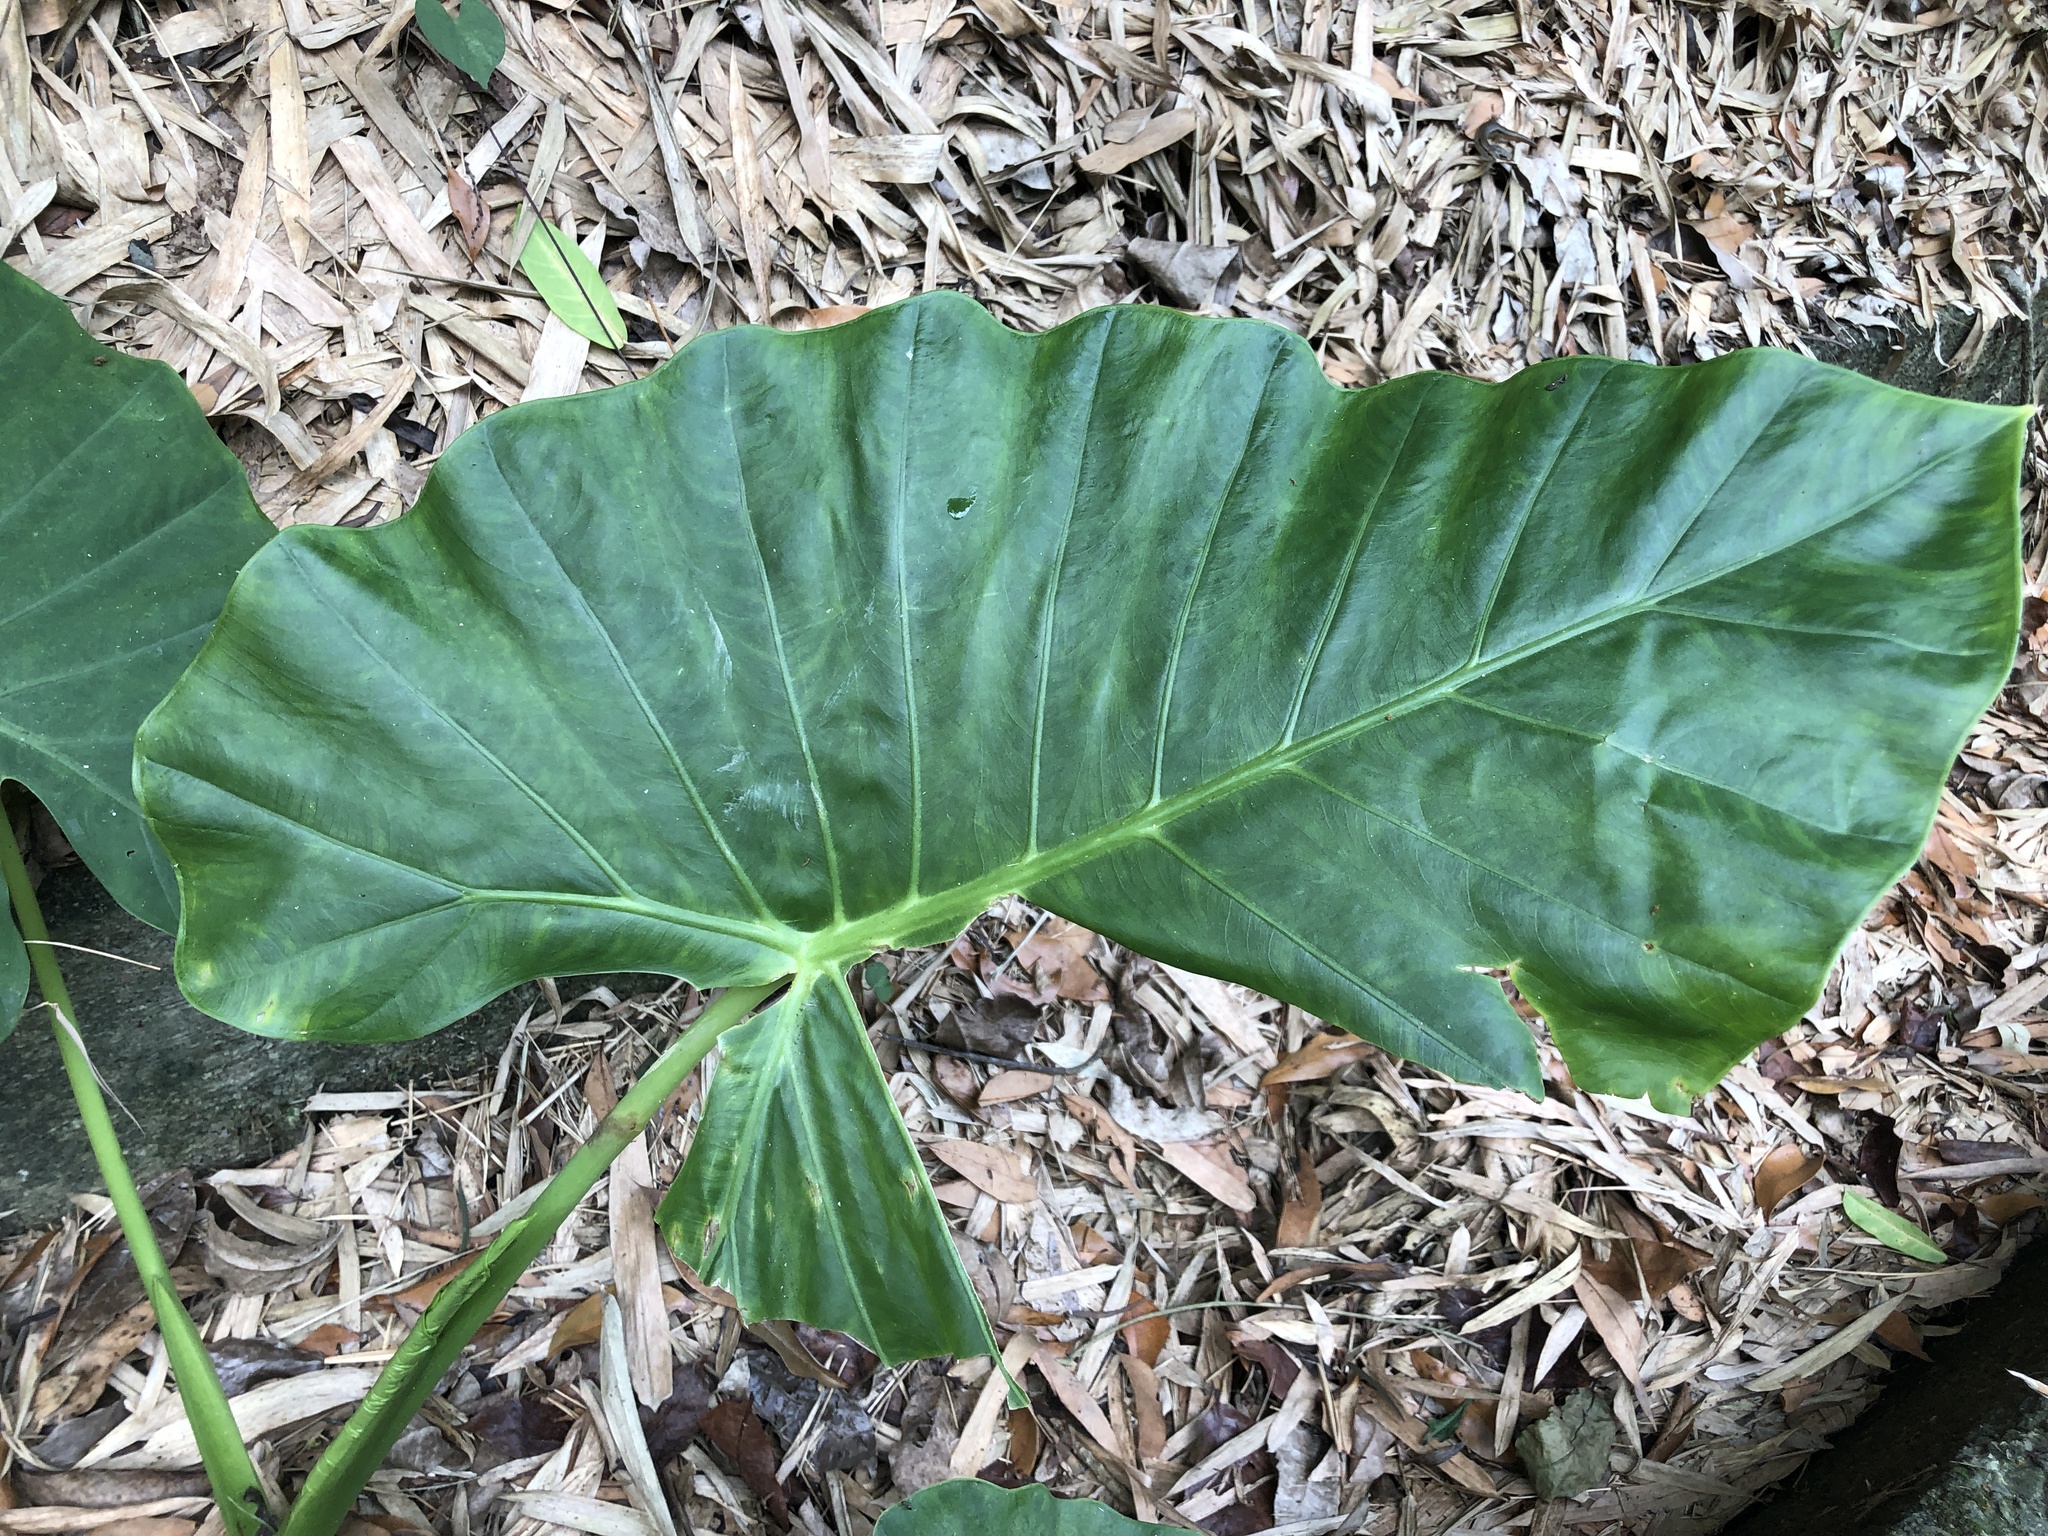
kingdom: Plantae
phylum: Tracheophyta
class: Liliopsida
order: Alismatales
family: Araceae
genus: Alocasia
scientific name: Alocasia odora
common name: Asian taro
